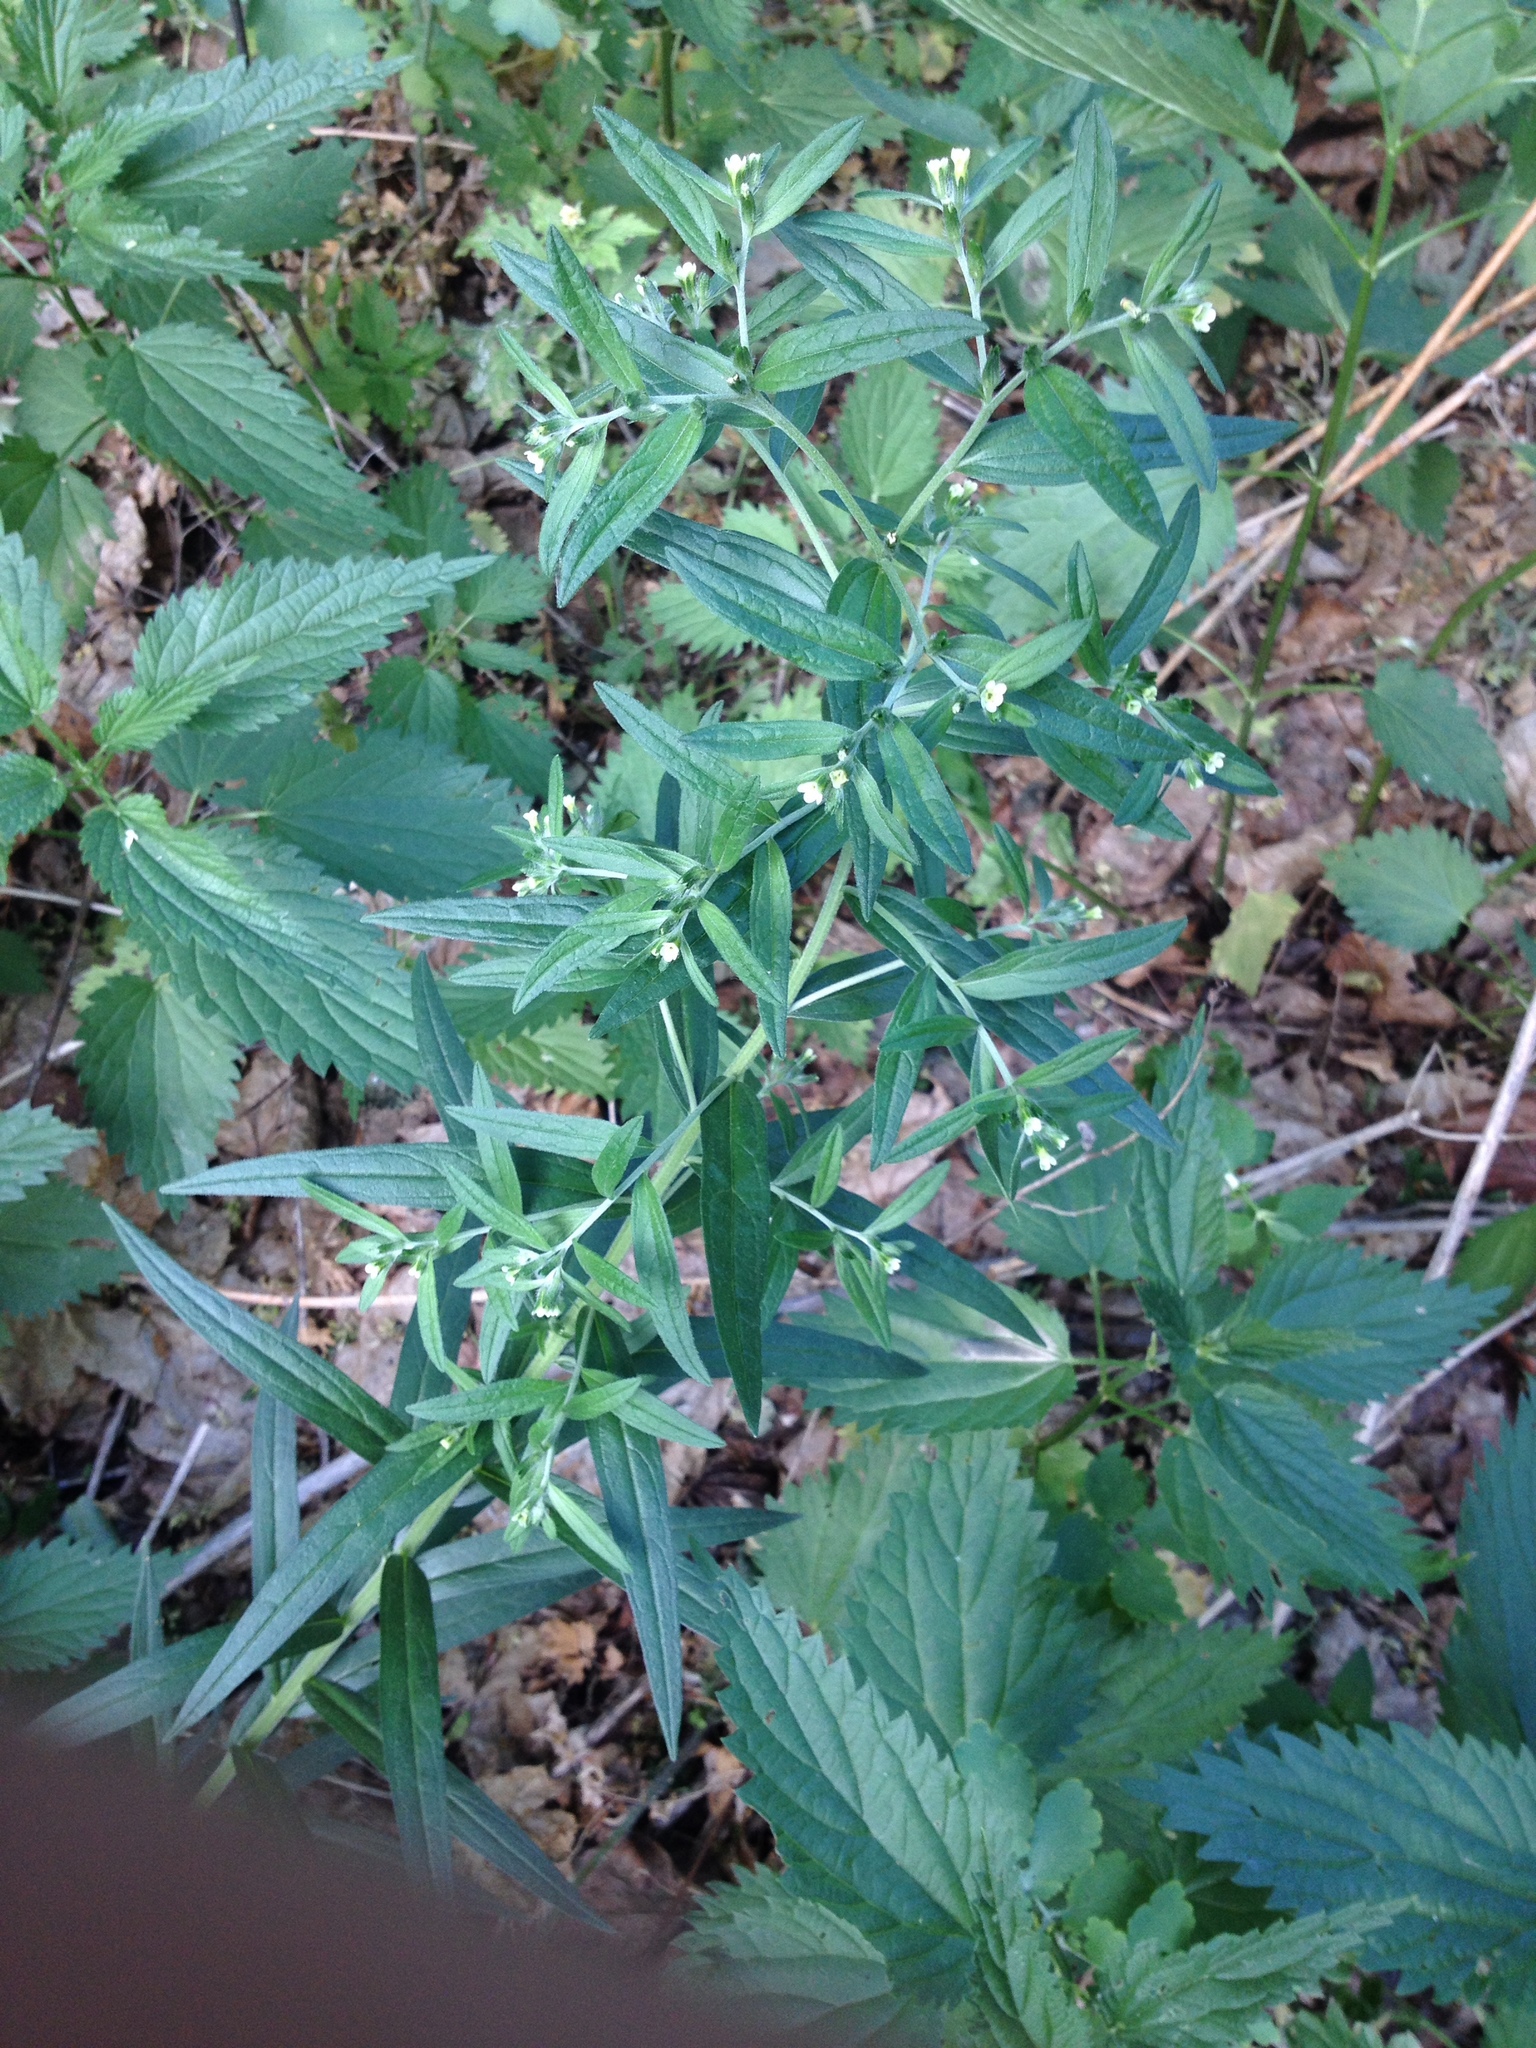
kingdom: Plantae
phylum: Tracheophyta
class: Magnoliopsida
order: Boraginales
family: Boraginaceae
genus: Lithospermum
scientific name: Lithospermum officinale
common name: Common gromwell
